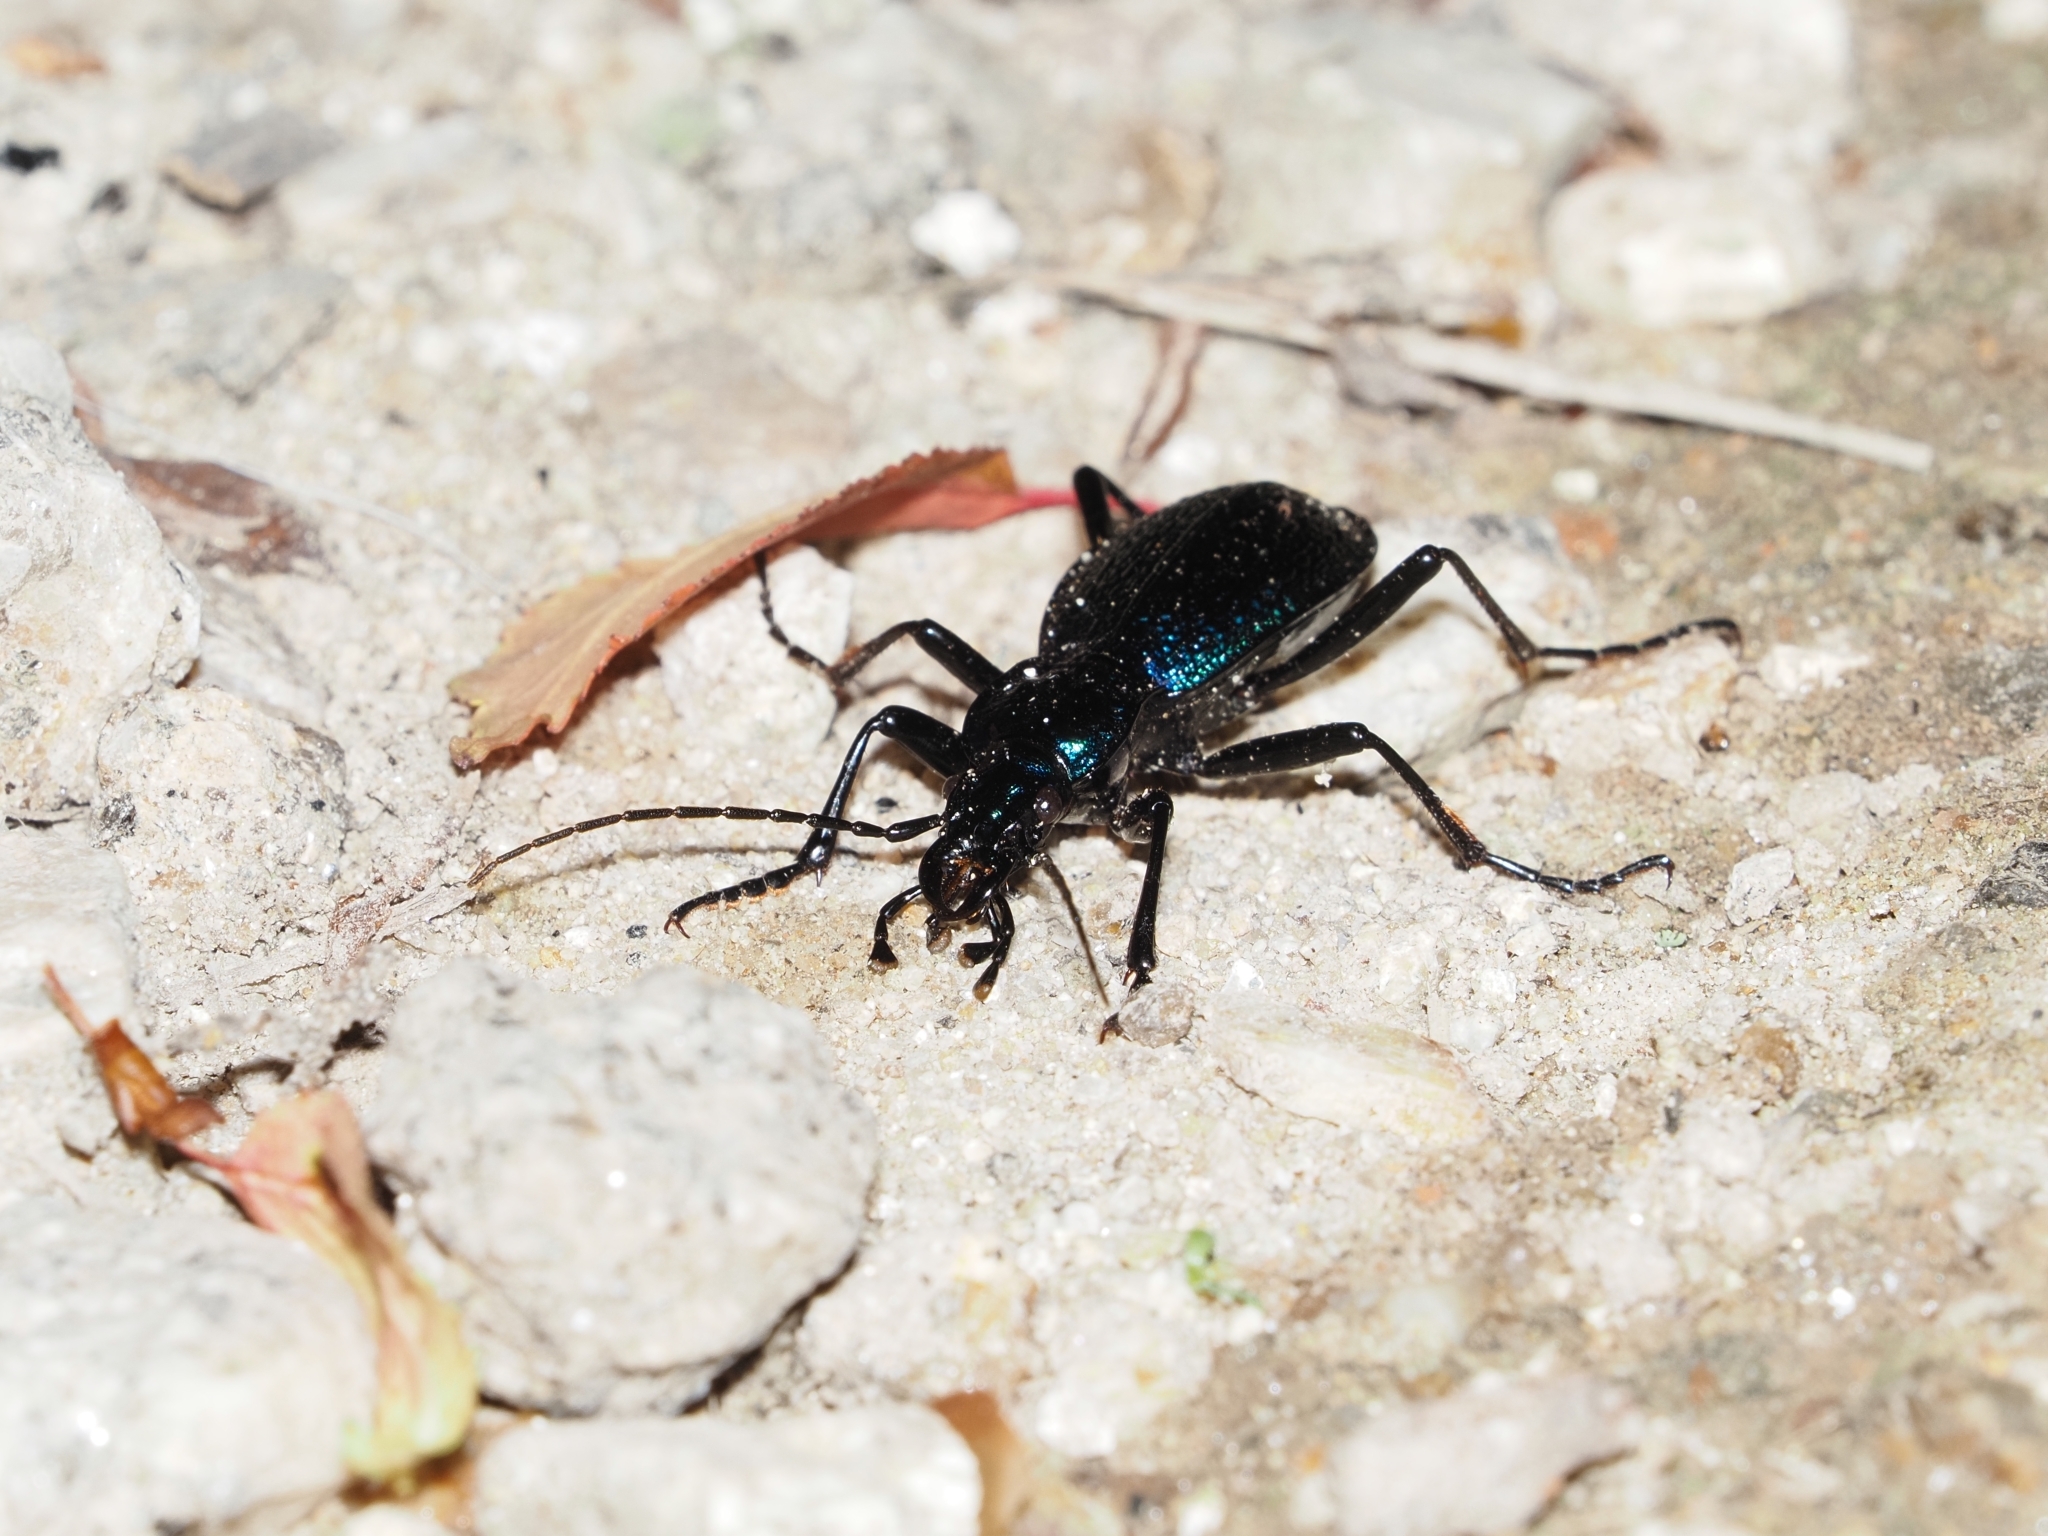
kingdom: Animalia
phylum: Arthropoda
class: Insecta
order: Coleoptera
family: Carabidae
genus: Carabus
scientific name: Carabus intricatus
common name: Blue ground beetle
